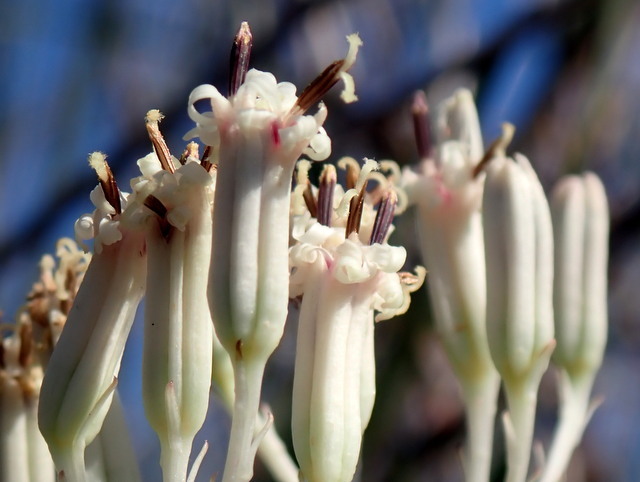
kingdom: Plantae
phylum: Tracheophyta
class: Magnoliopsida
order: Asterales
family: Asteraceae
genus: Arnoglossum
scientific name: Arnoglossum ovatum
